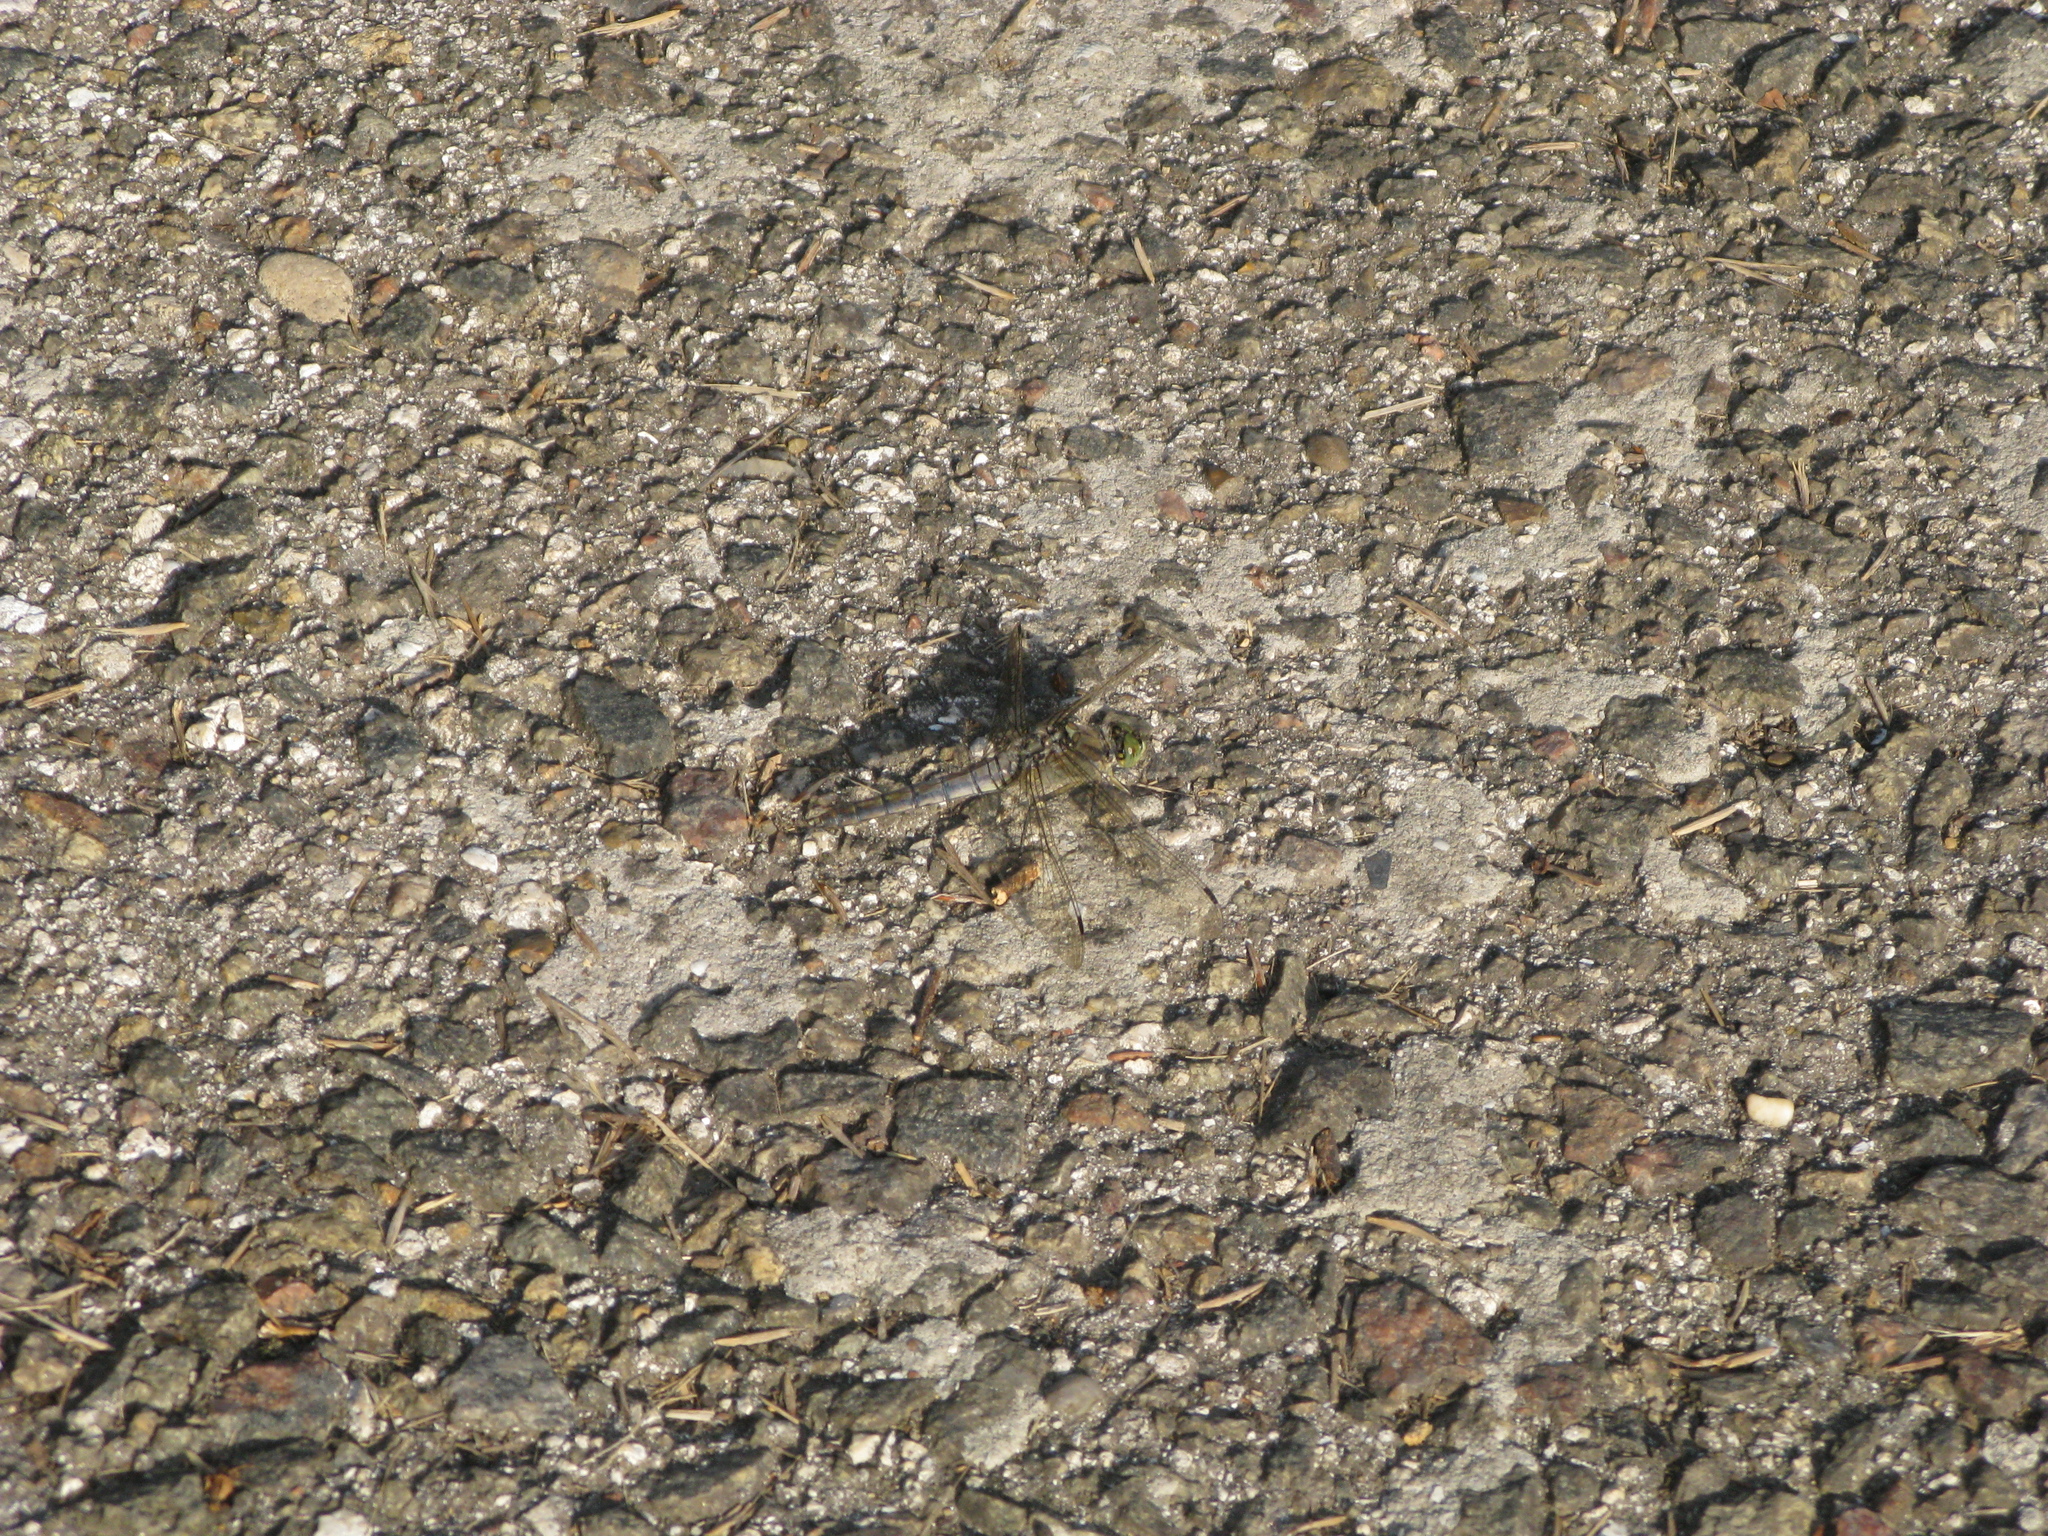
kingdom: Animalia
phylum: Arthropoda
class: Insecta
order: Odonata
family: Libellulidae
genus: Orthetrum
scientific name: Orthetrum cancellatum
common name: Black-tailed skimmer
